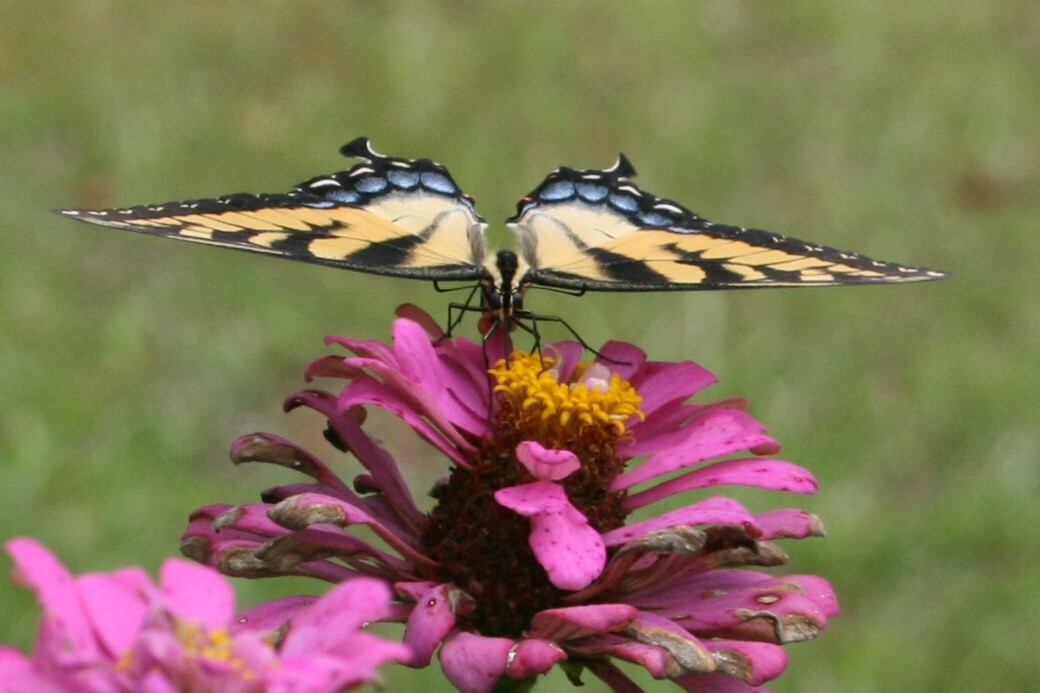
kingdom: Animalia
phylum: Arthropoda
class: Insecta
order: Lepidoptera
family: Papilionidae
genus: Papilio
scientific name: Papilio glaucus
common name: Tiger swallowtail
